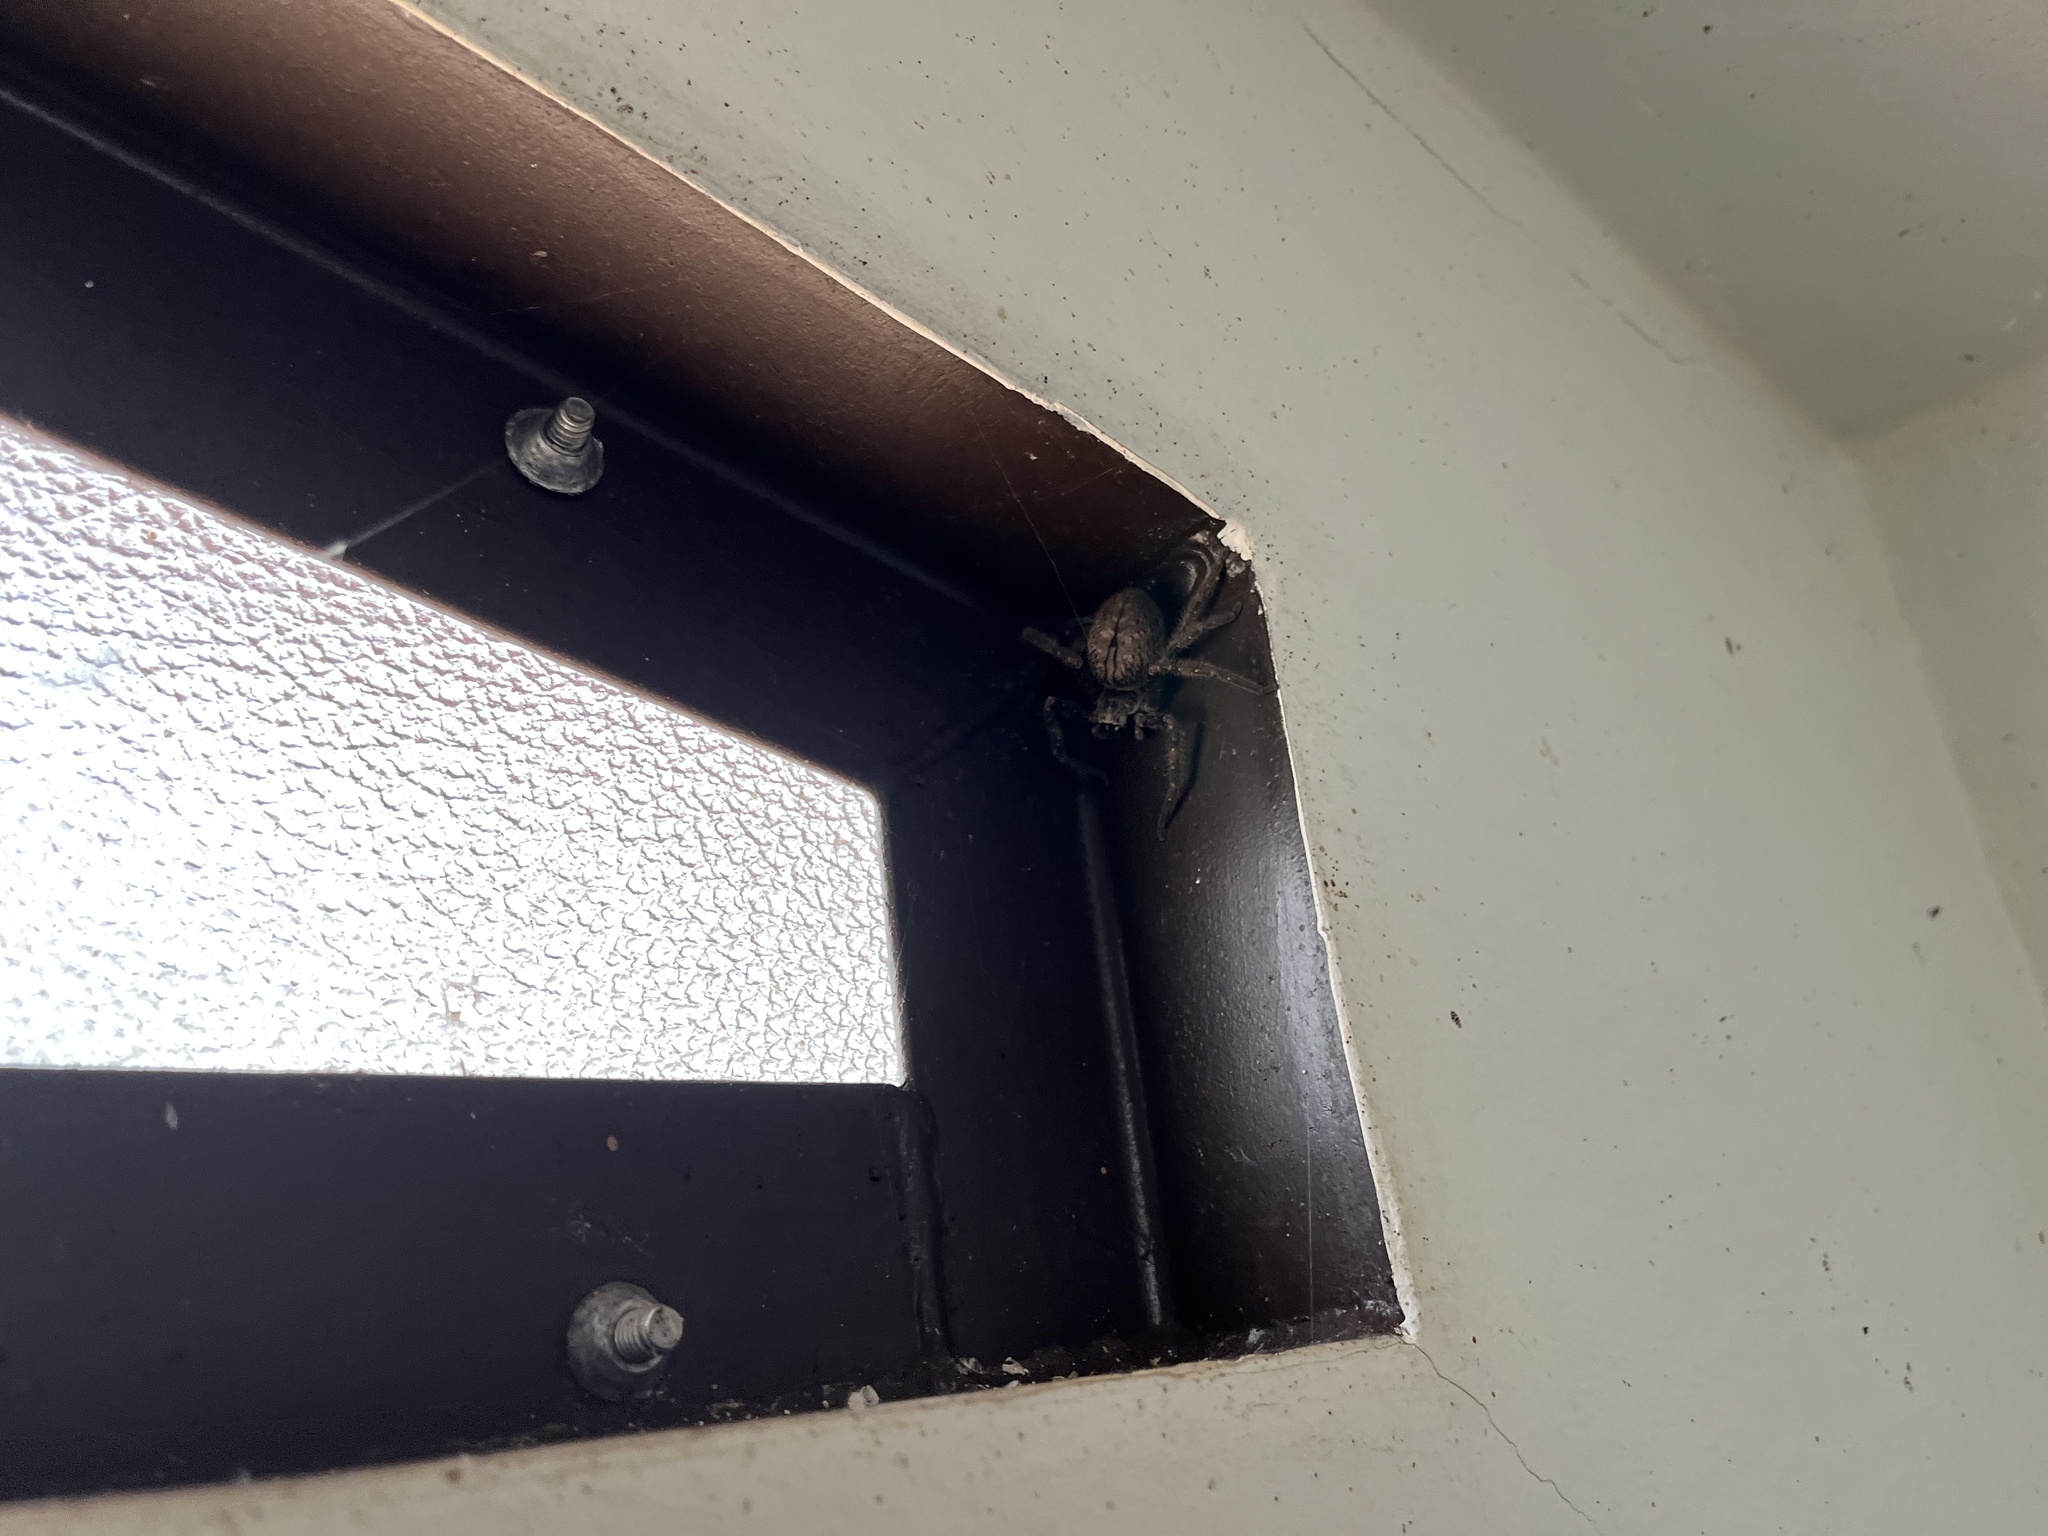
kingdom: Animalia
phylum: Arthropoda
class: Arachnida
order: Araneae
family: Sparassidae
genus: Olios
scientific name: Olios giganteus
